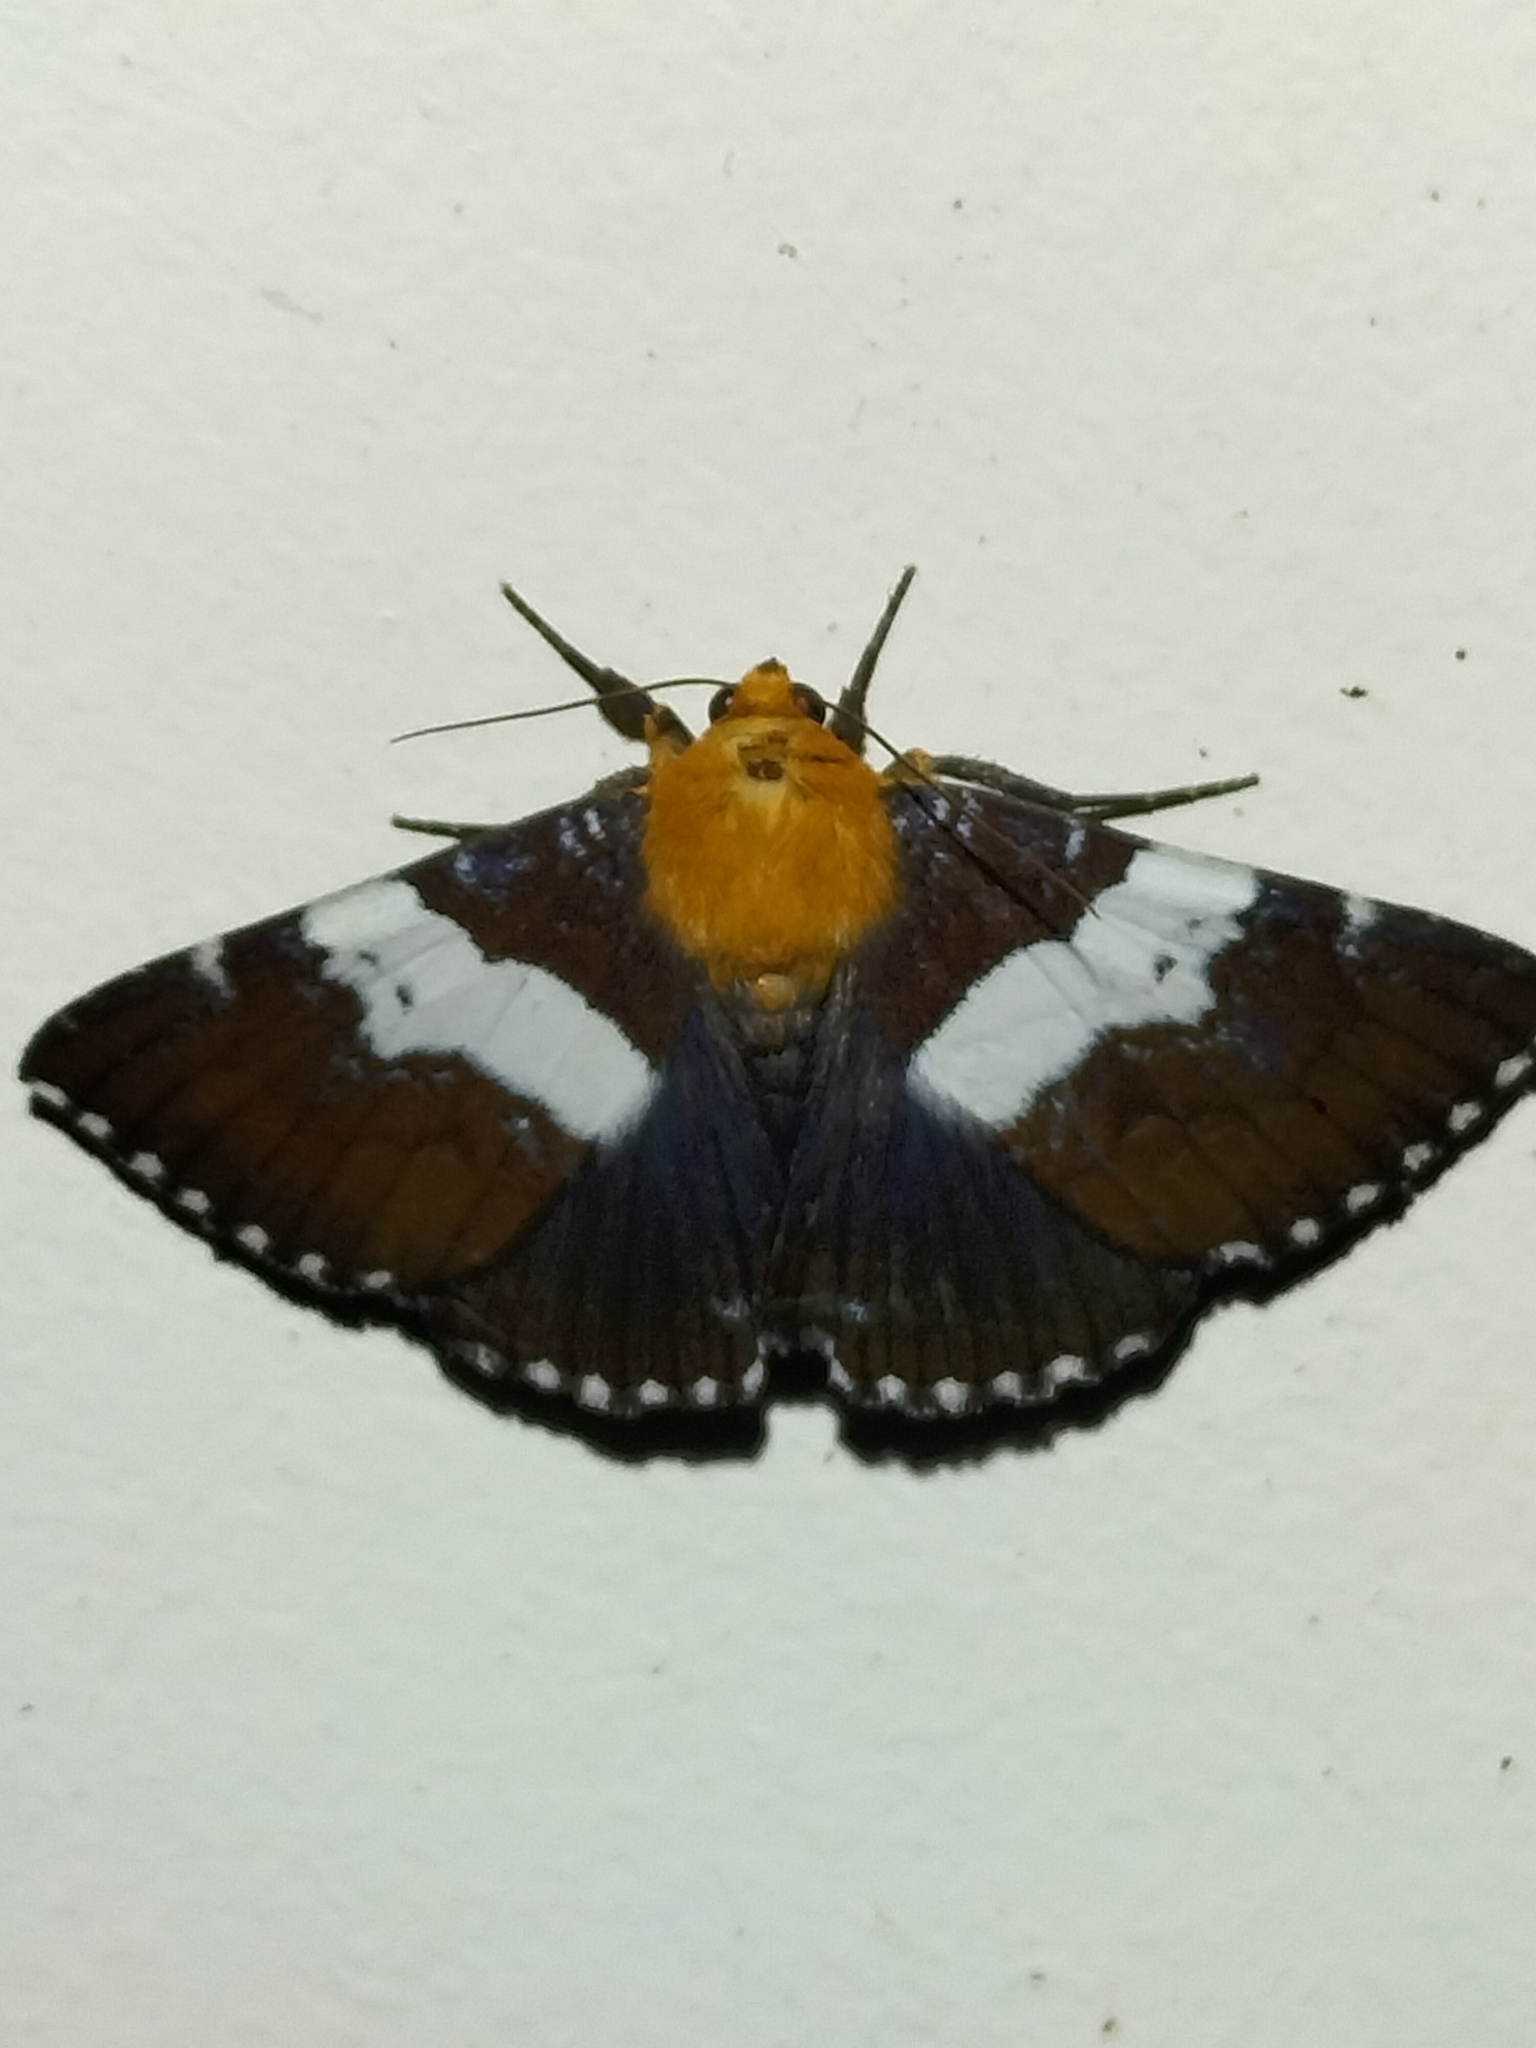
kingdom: Animalia
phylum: Arthropoda
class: Insecta
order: Lepidoptera
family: Erebidae
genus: Buzara
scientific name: Buzara latizona
